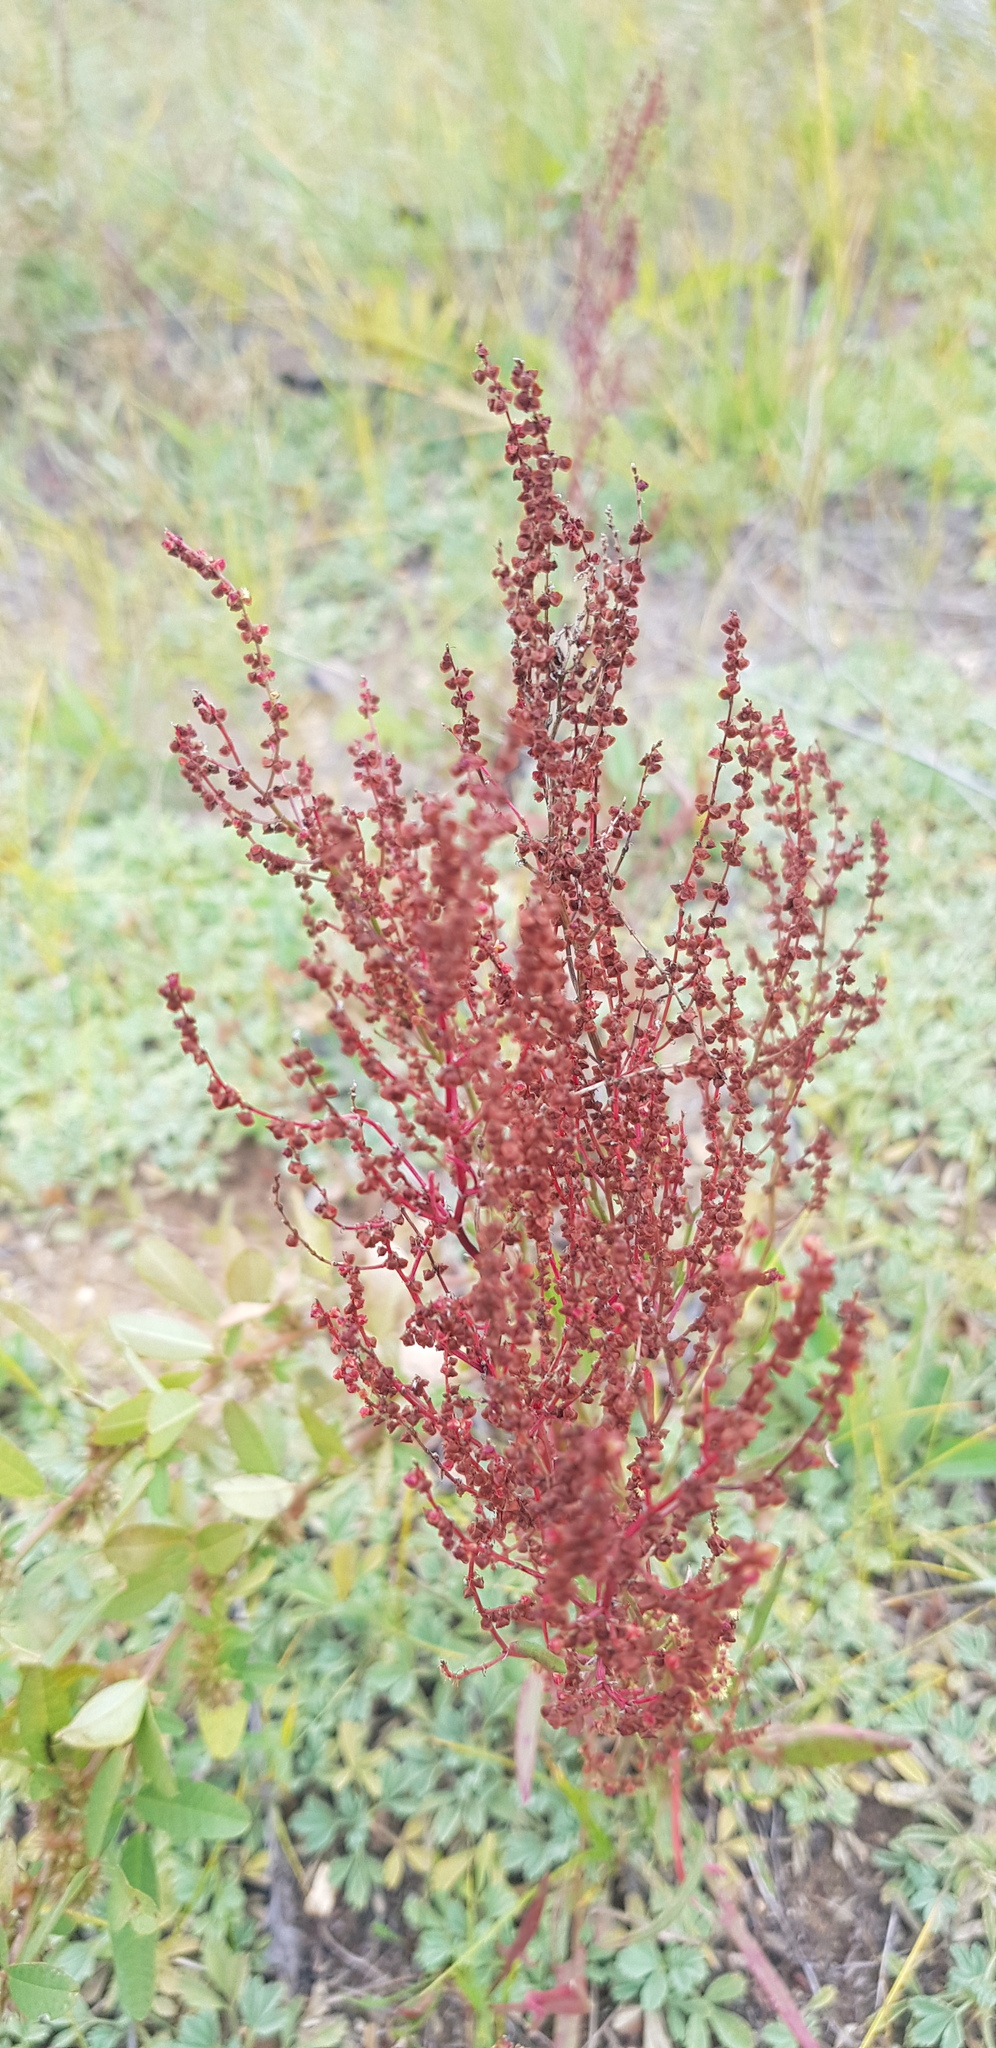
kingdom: Plantae
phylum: Tracheophyta
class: Magnoliopsida
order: Caryophyllales
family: Polygonaceae
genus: Rumex
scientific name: Rumex acetosella
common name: Common sheep sorrel
